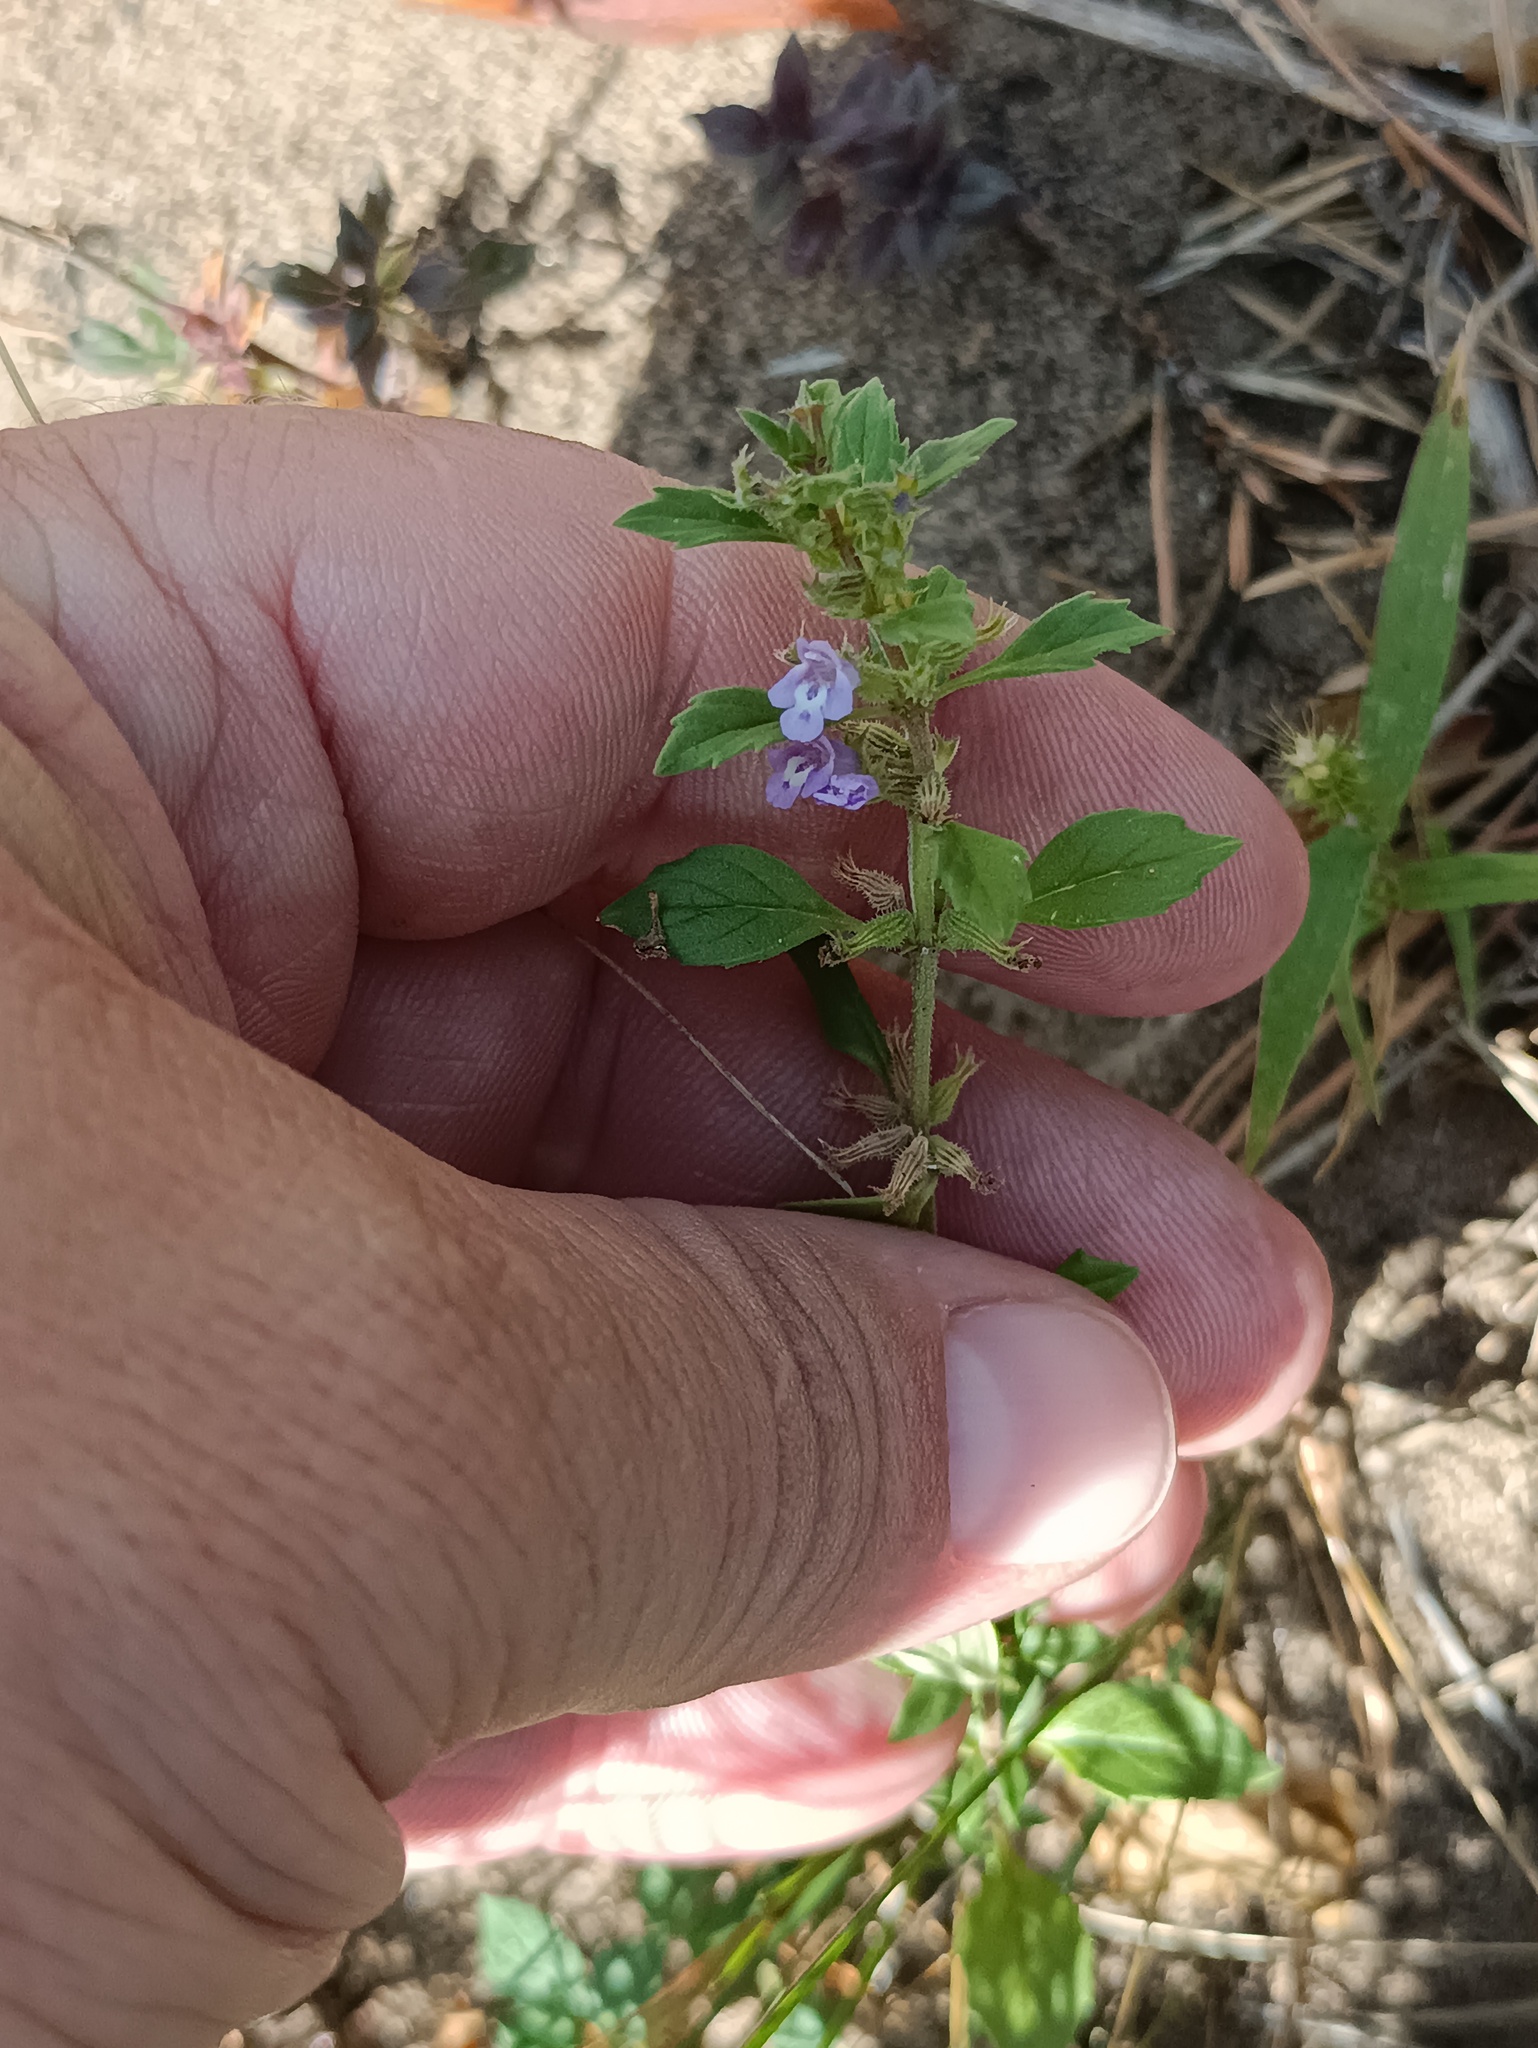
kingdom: Plantae
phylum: Tracheophyta
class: Magnoliopsida
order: Lamiales
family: Lamiaceae
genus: Clinopodium
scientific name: Clinopodium acinos
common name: Basil thyme
